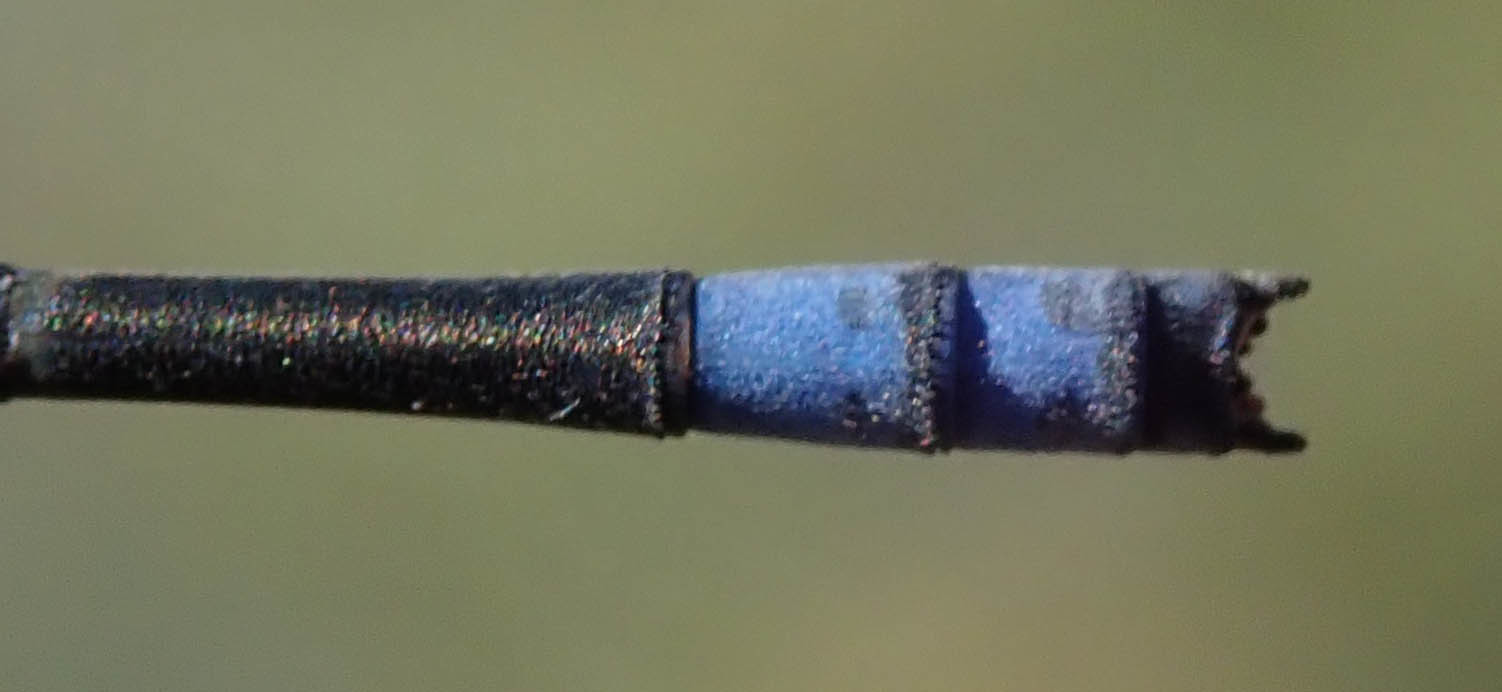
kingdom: Animalia
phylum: Arthropoda
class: Insecta
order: Odonata
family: Coenagrionidae
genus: Pseudagrion
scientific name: Pseudagrion sublacteum
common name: Cherry-eye sprite
